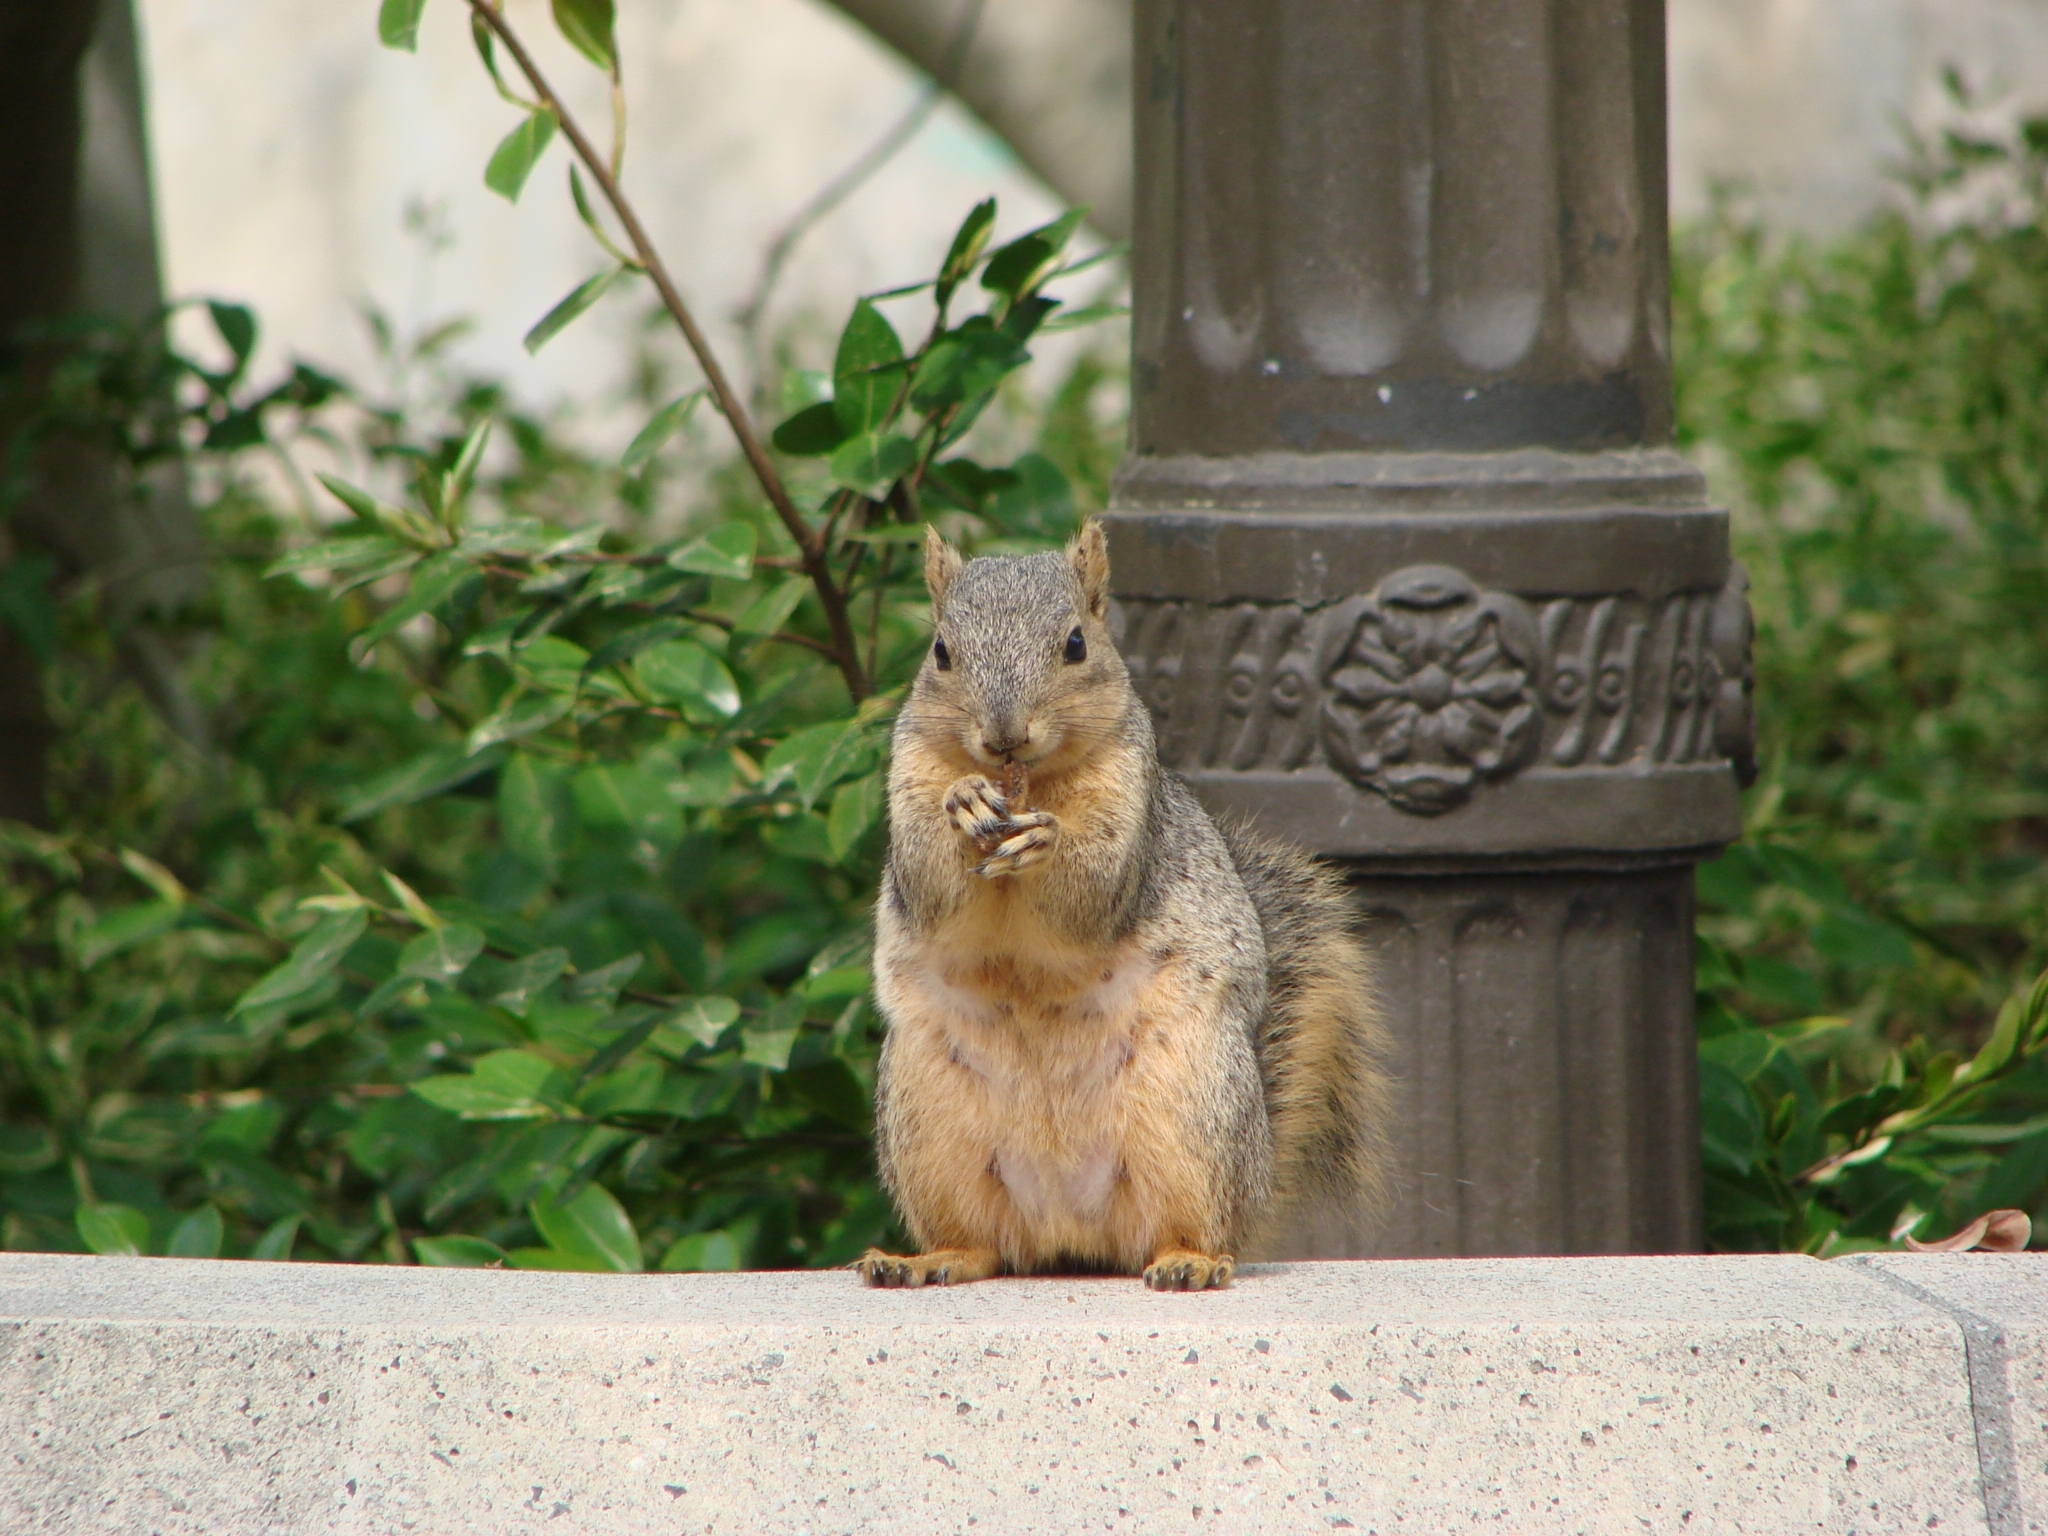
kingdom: Animalia
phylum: Chordata
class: Mammalia
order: Rodentia
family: Sciuridae
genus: Sciurus
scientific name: Sciurus niger
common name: Fox squirrel
